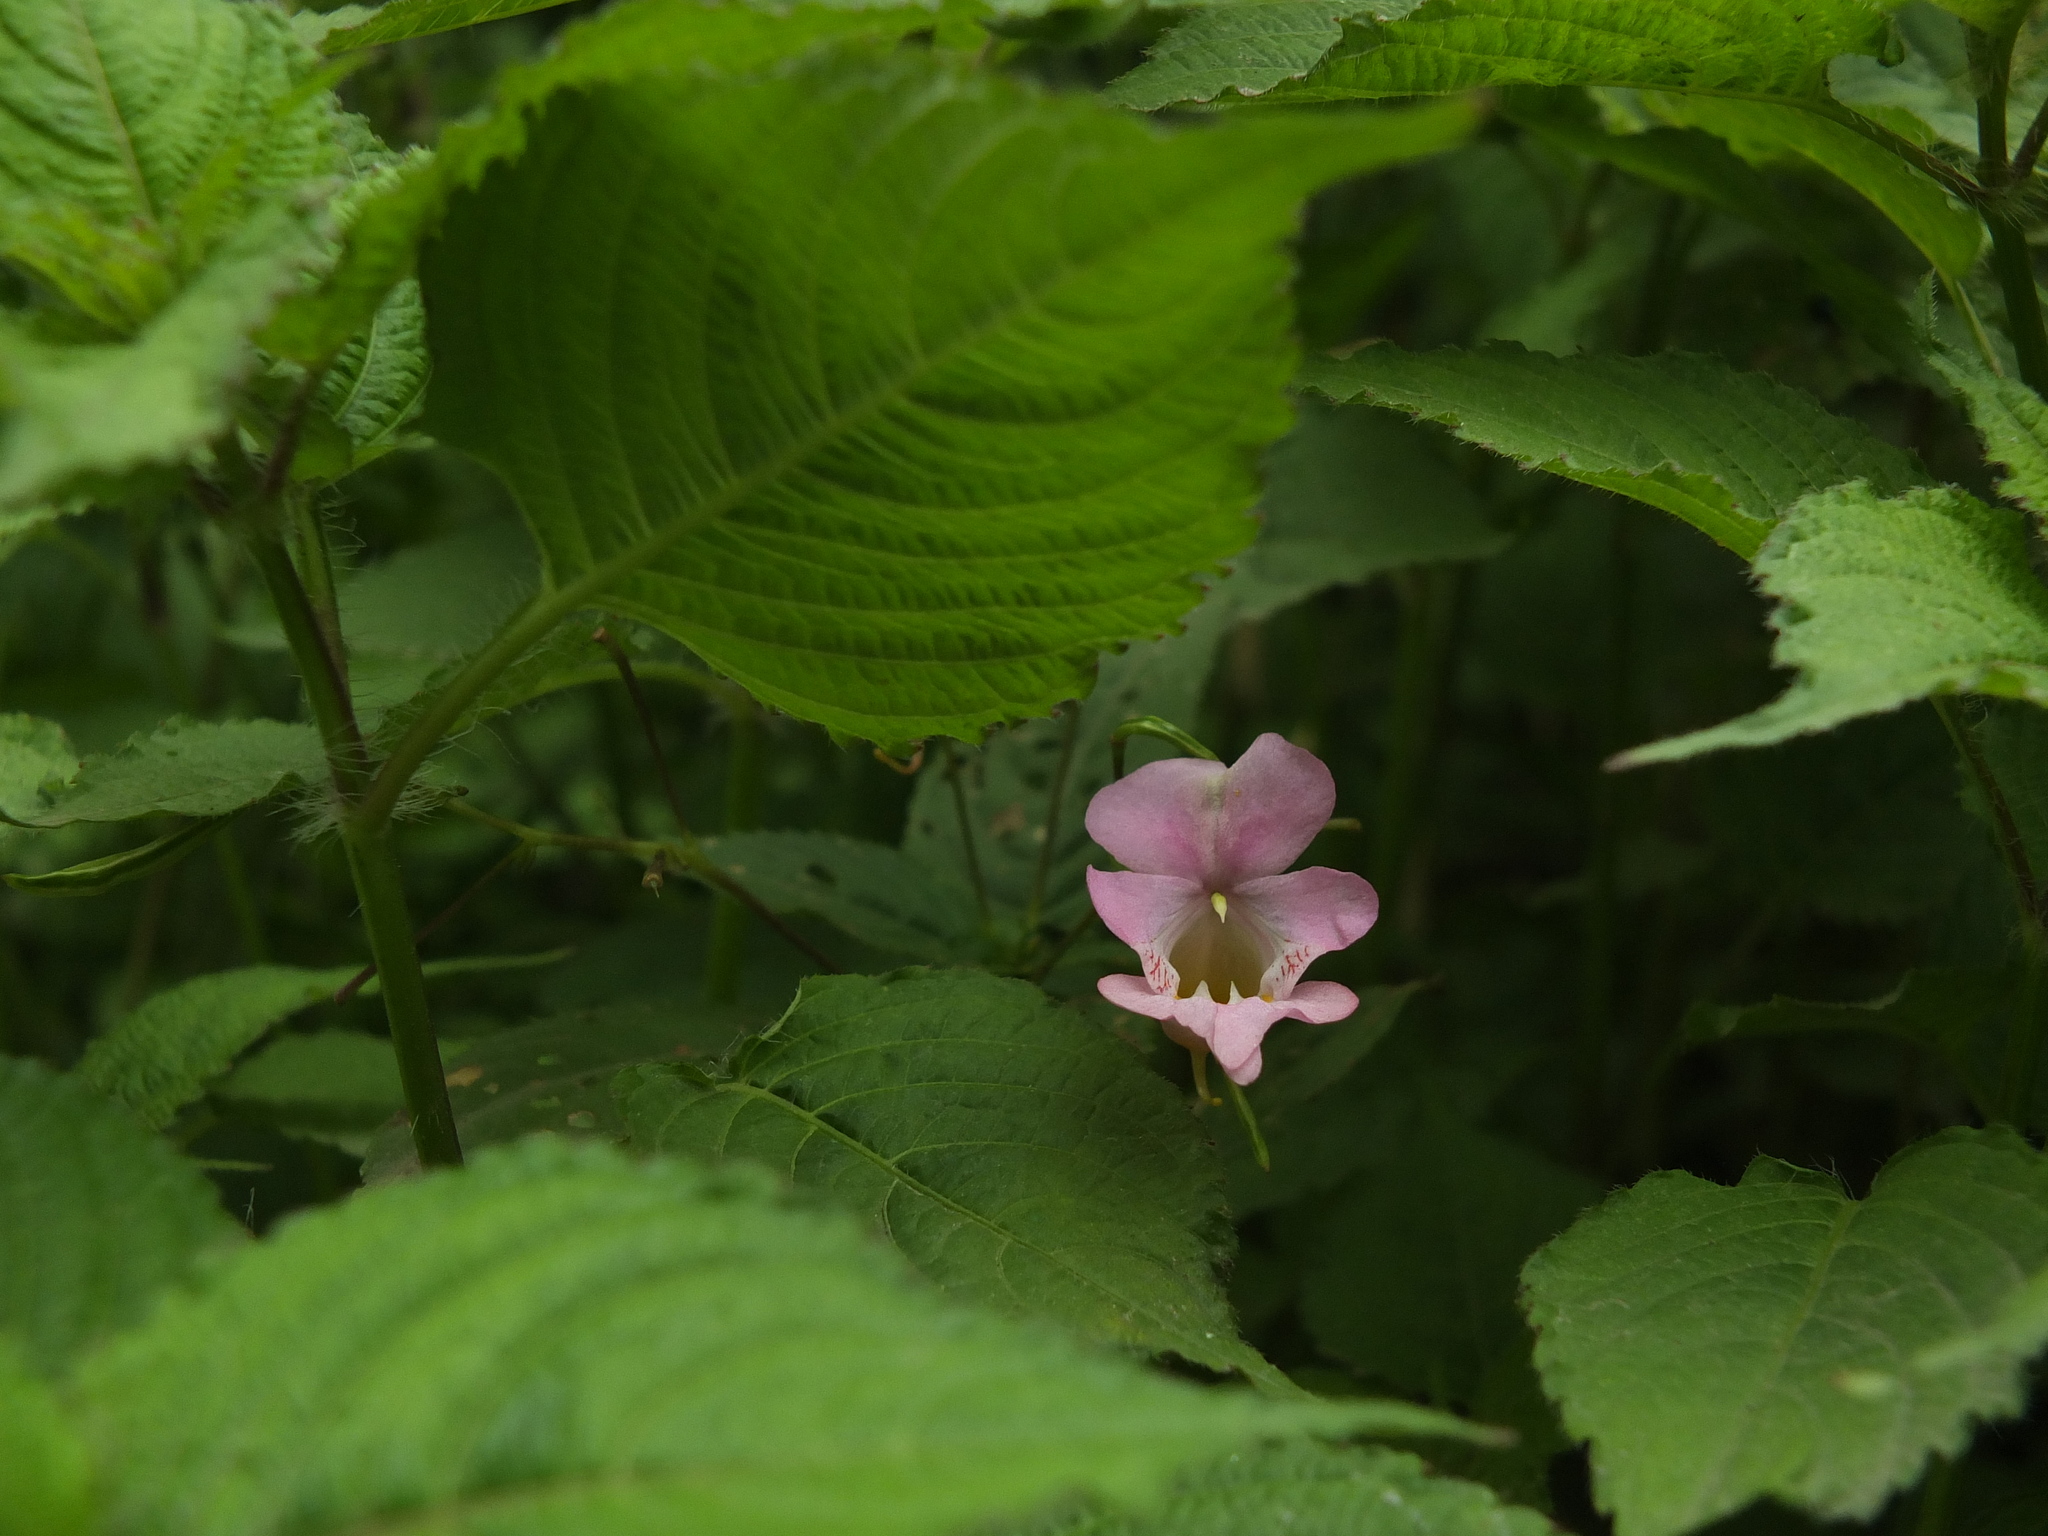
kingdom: Plantae
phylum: Tracheophyta
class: Magnoliopsida
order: Ericales
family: Balsaminaceae
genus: Impatiens
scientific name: Impatiens devendrae
